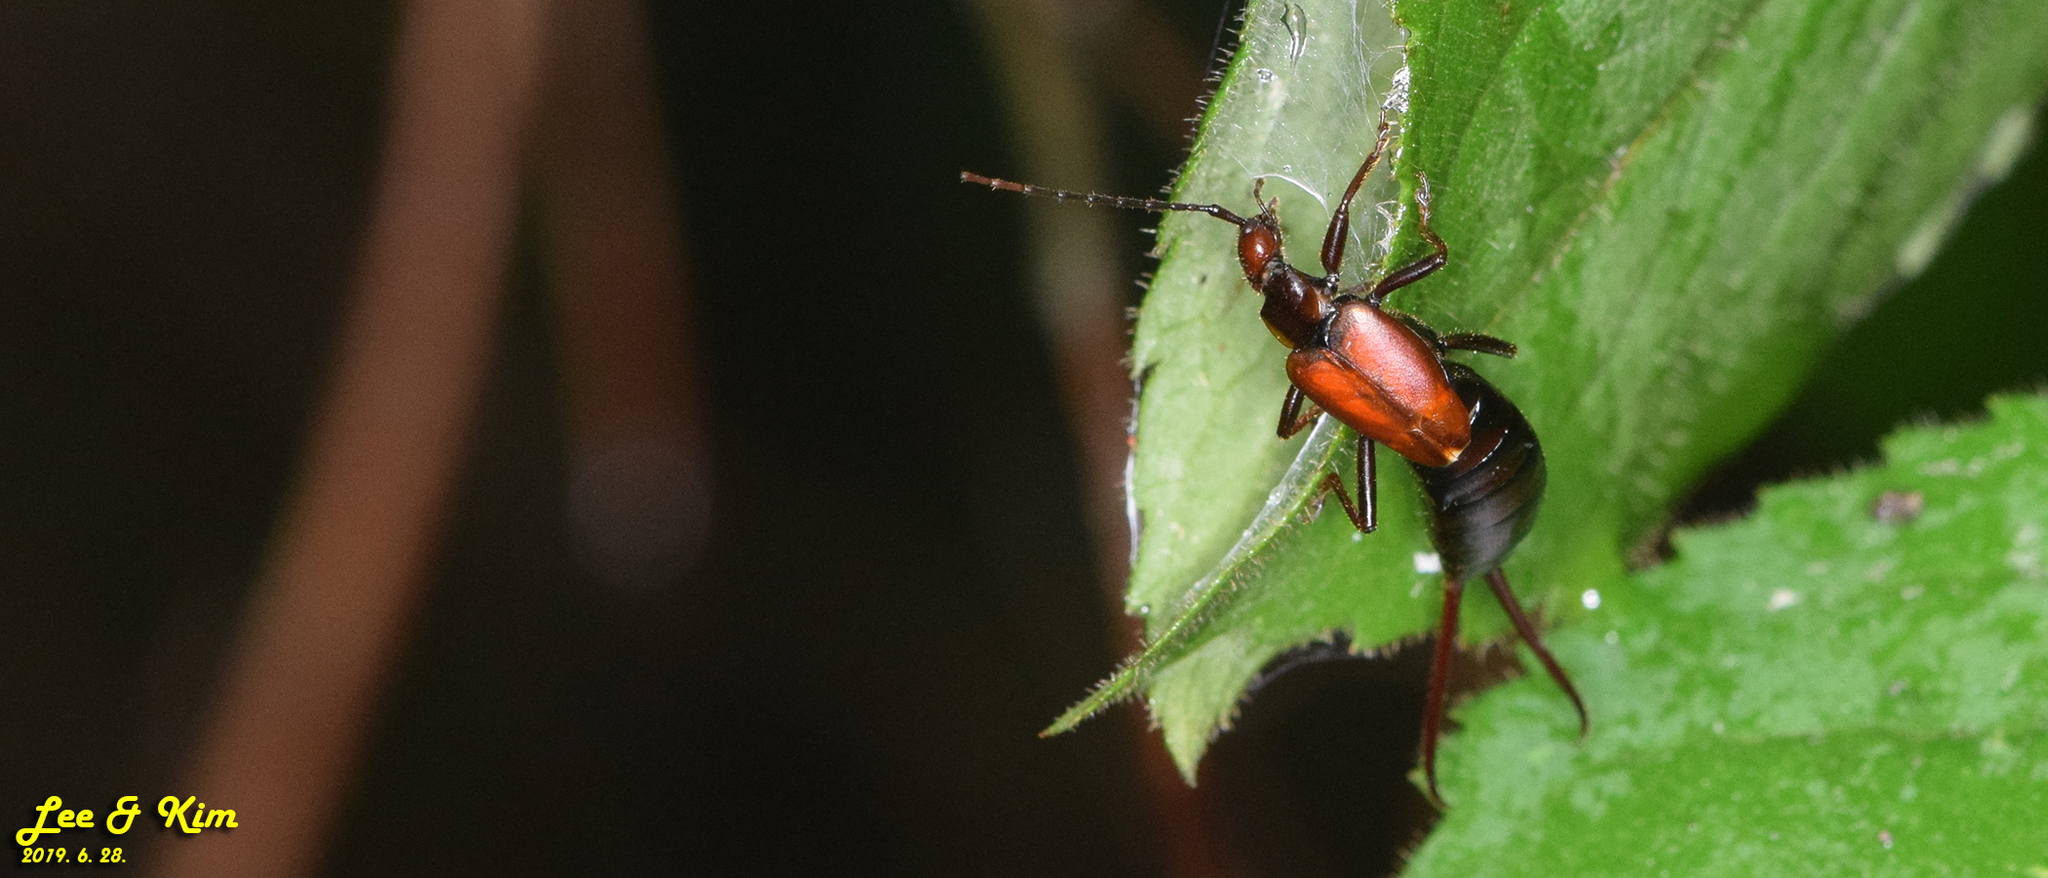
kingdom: Animalia
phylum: Arthropoda
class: Insecta
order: Dermaptera
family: Forficulidae
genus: Timomenus
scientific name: Timomenus komarovi
